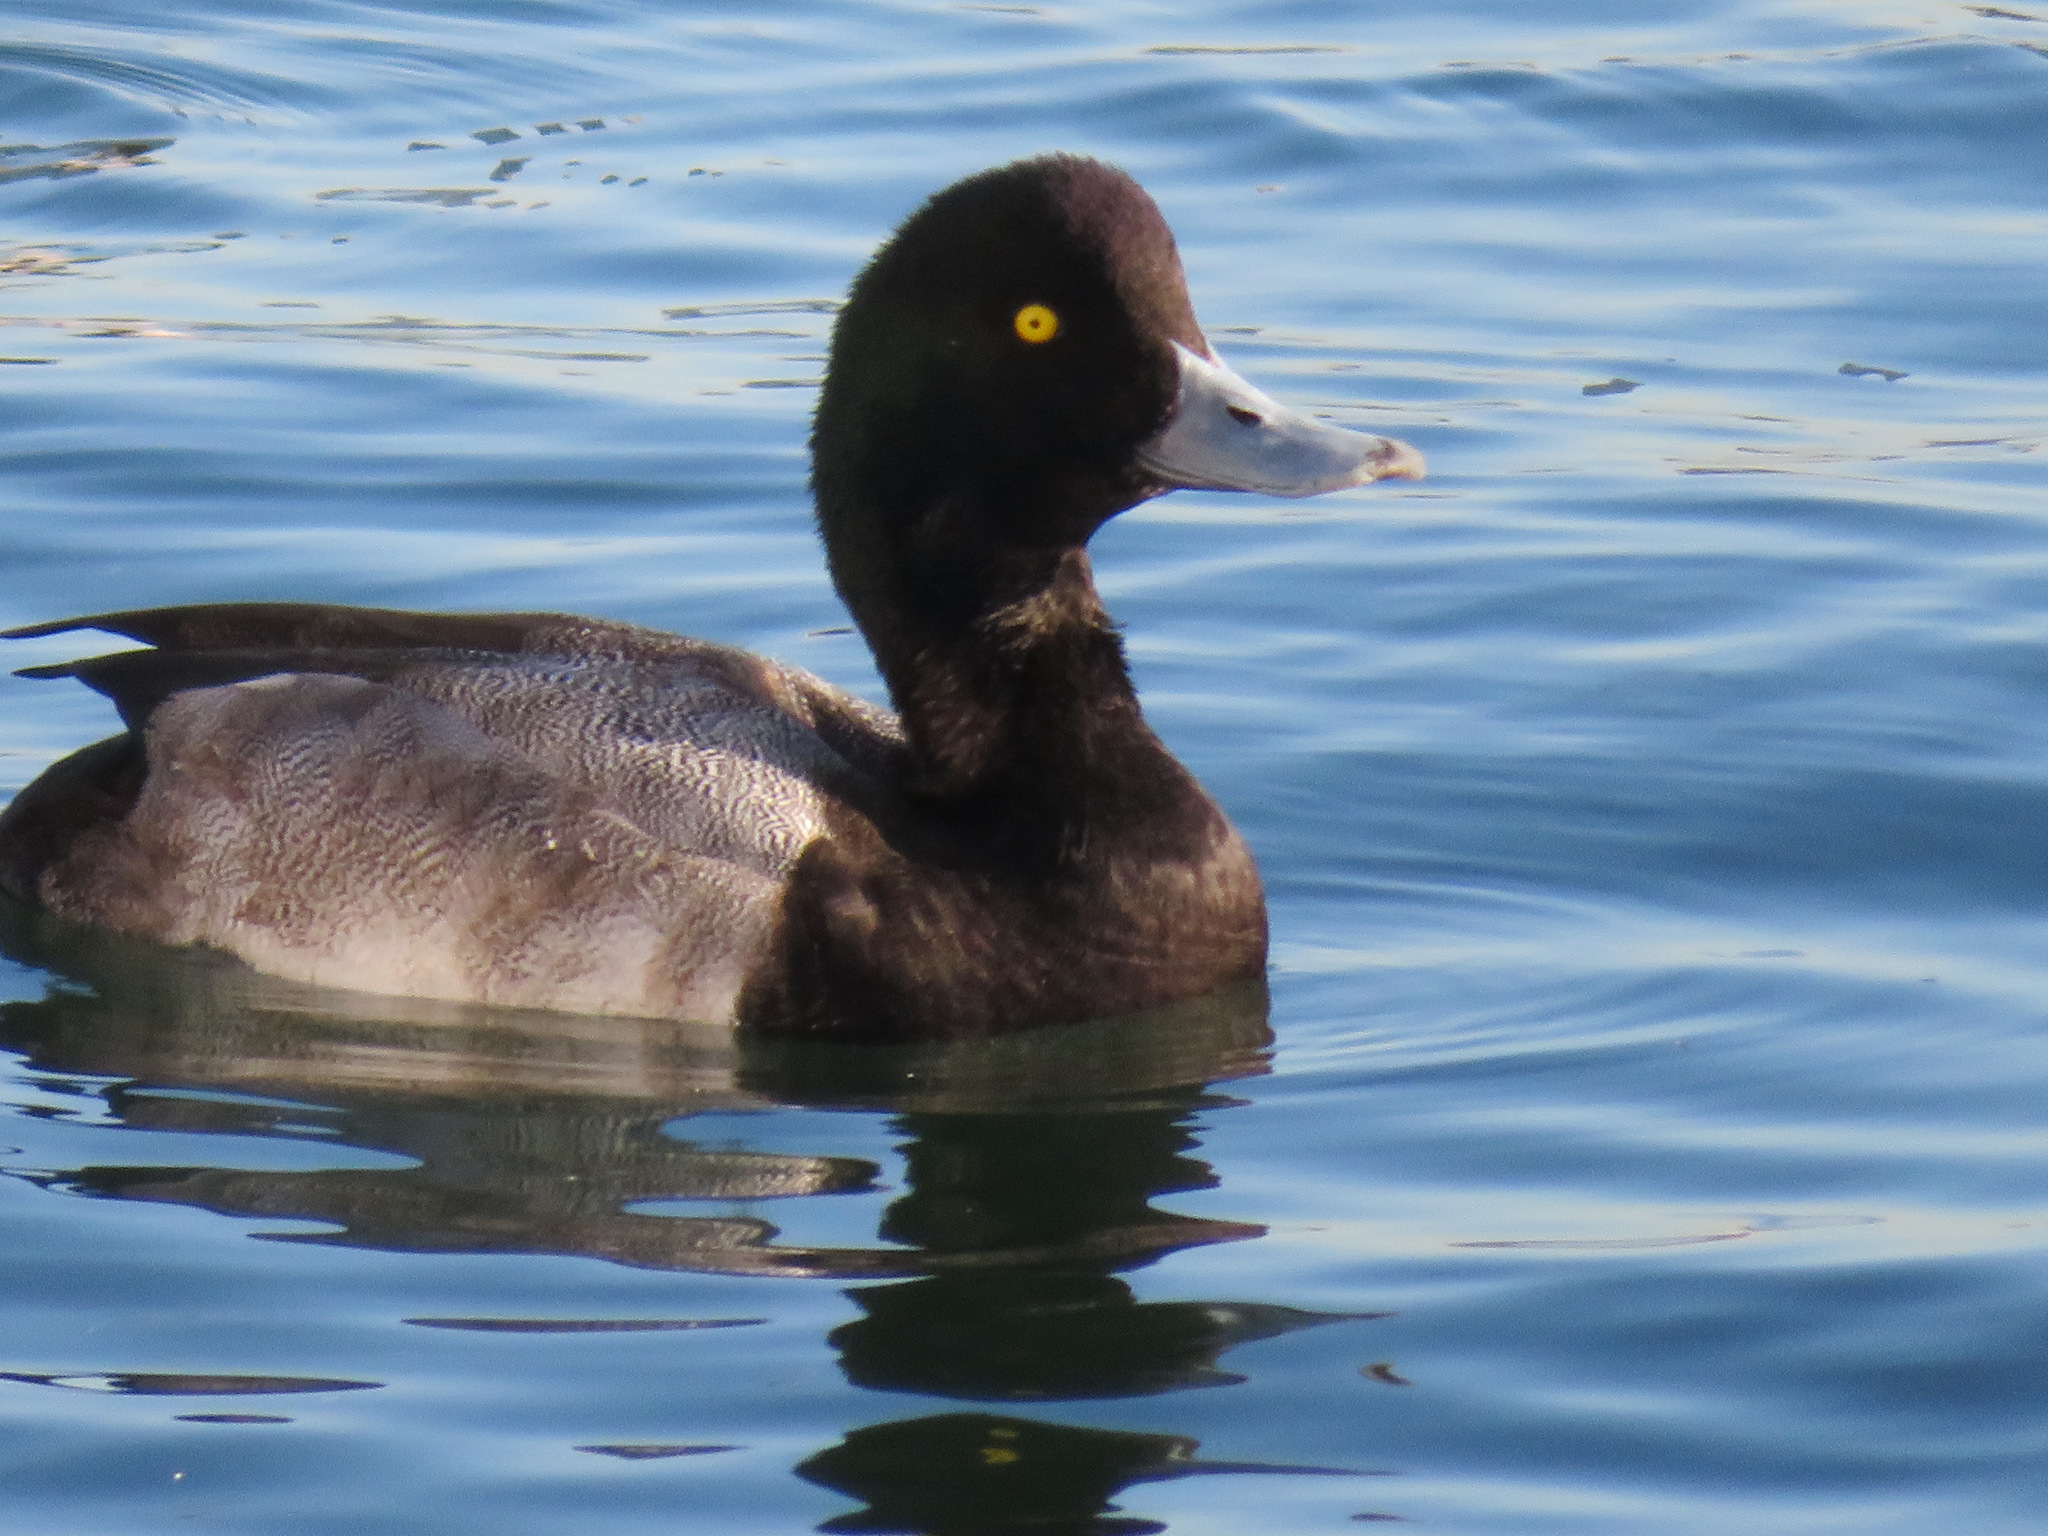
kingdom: Animalia
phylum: Chordata
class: Aves
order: Anseriformes
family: Anatidae
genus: Aythya
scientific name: Aythya marila
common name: Greater scaup
